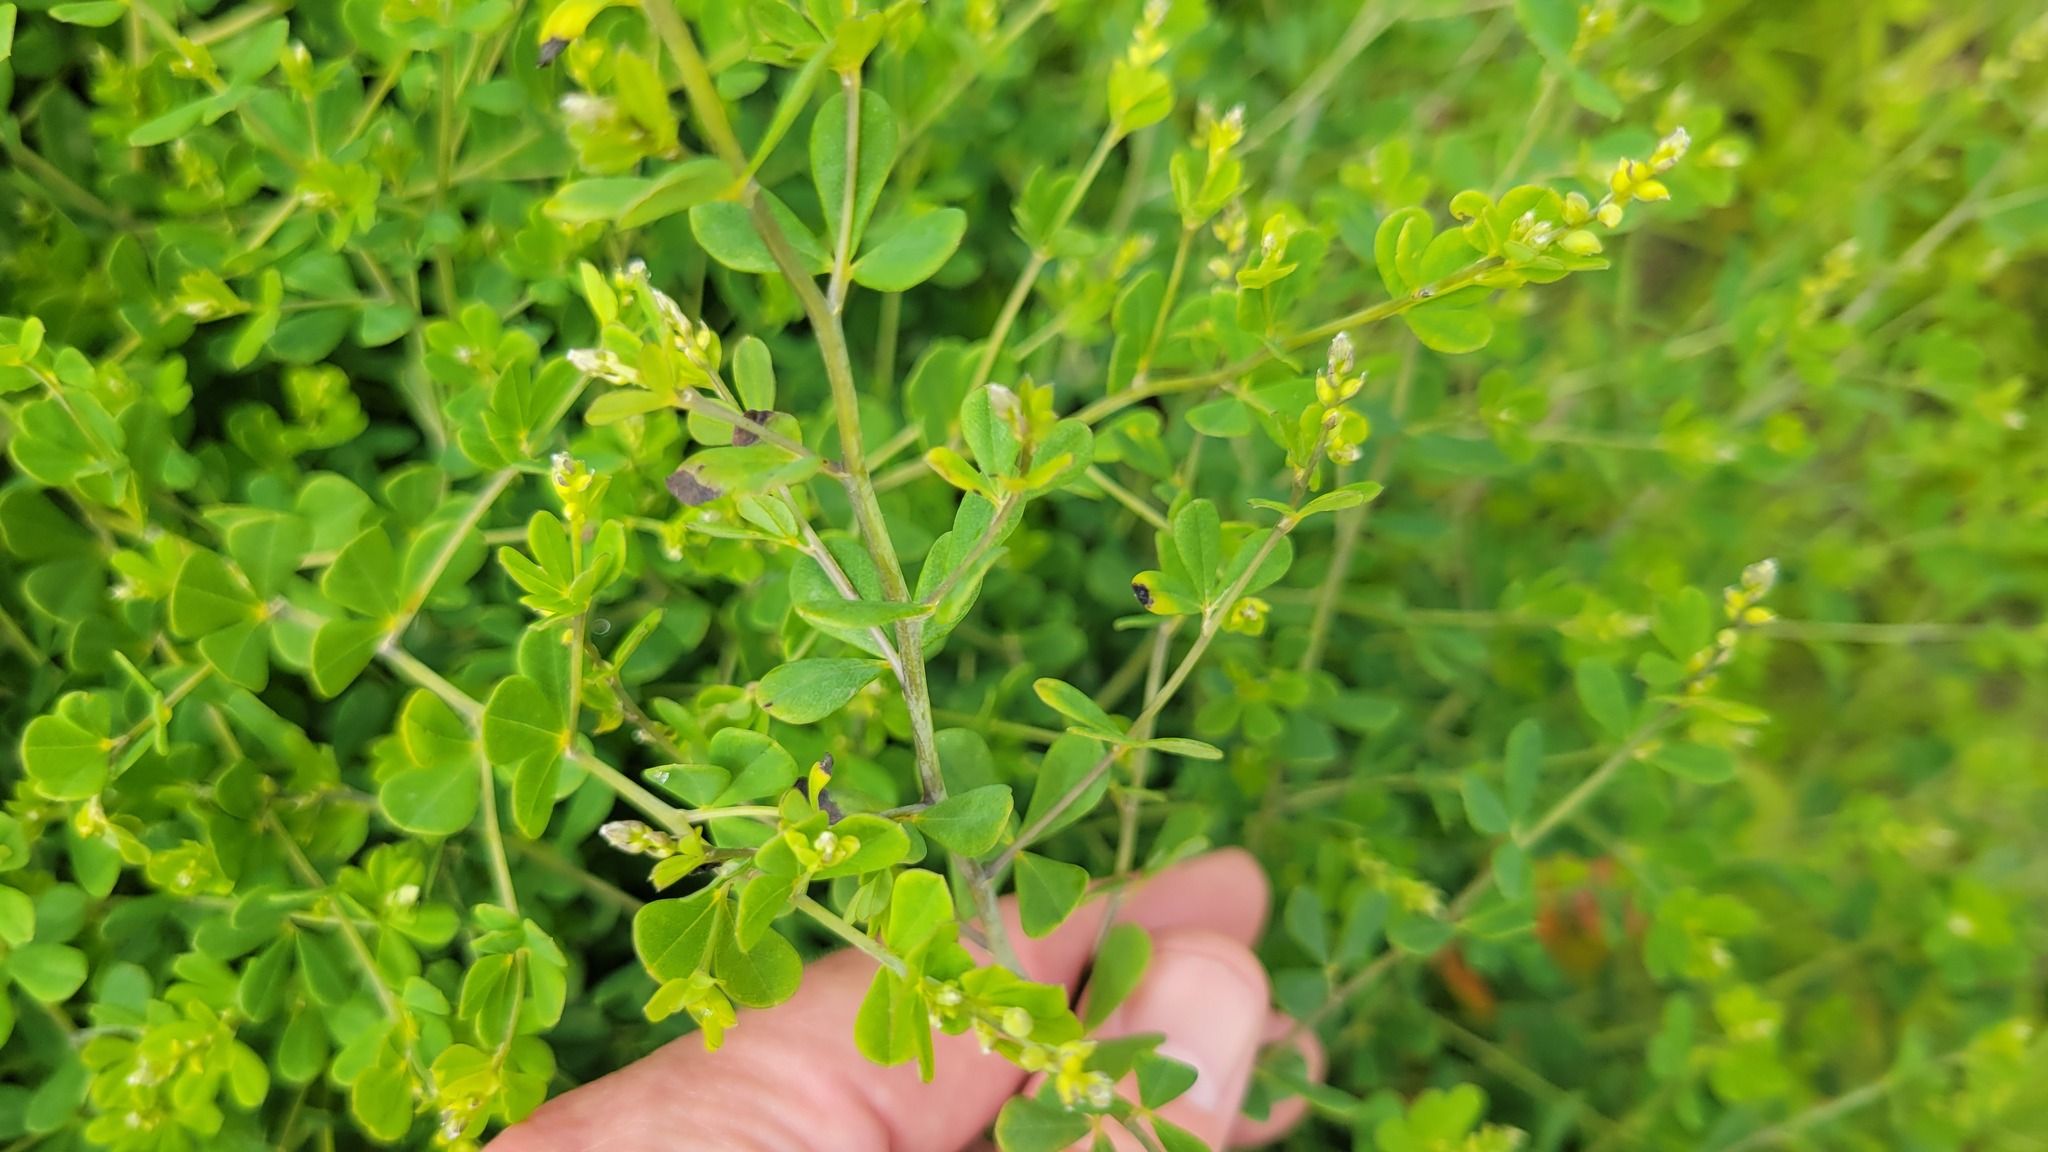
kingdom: Plantae
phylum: Tracheophyta
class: Magnoliopsida
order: Fabales
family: Fabaceae
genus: Baptisia
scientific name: Baptisia tinctoria
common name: Wild indigo
